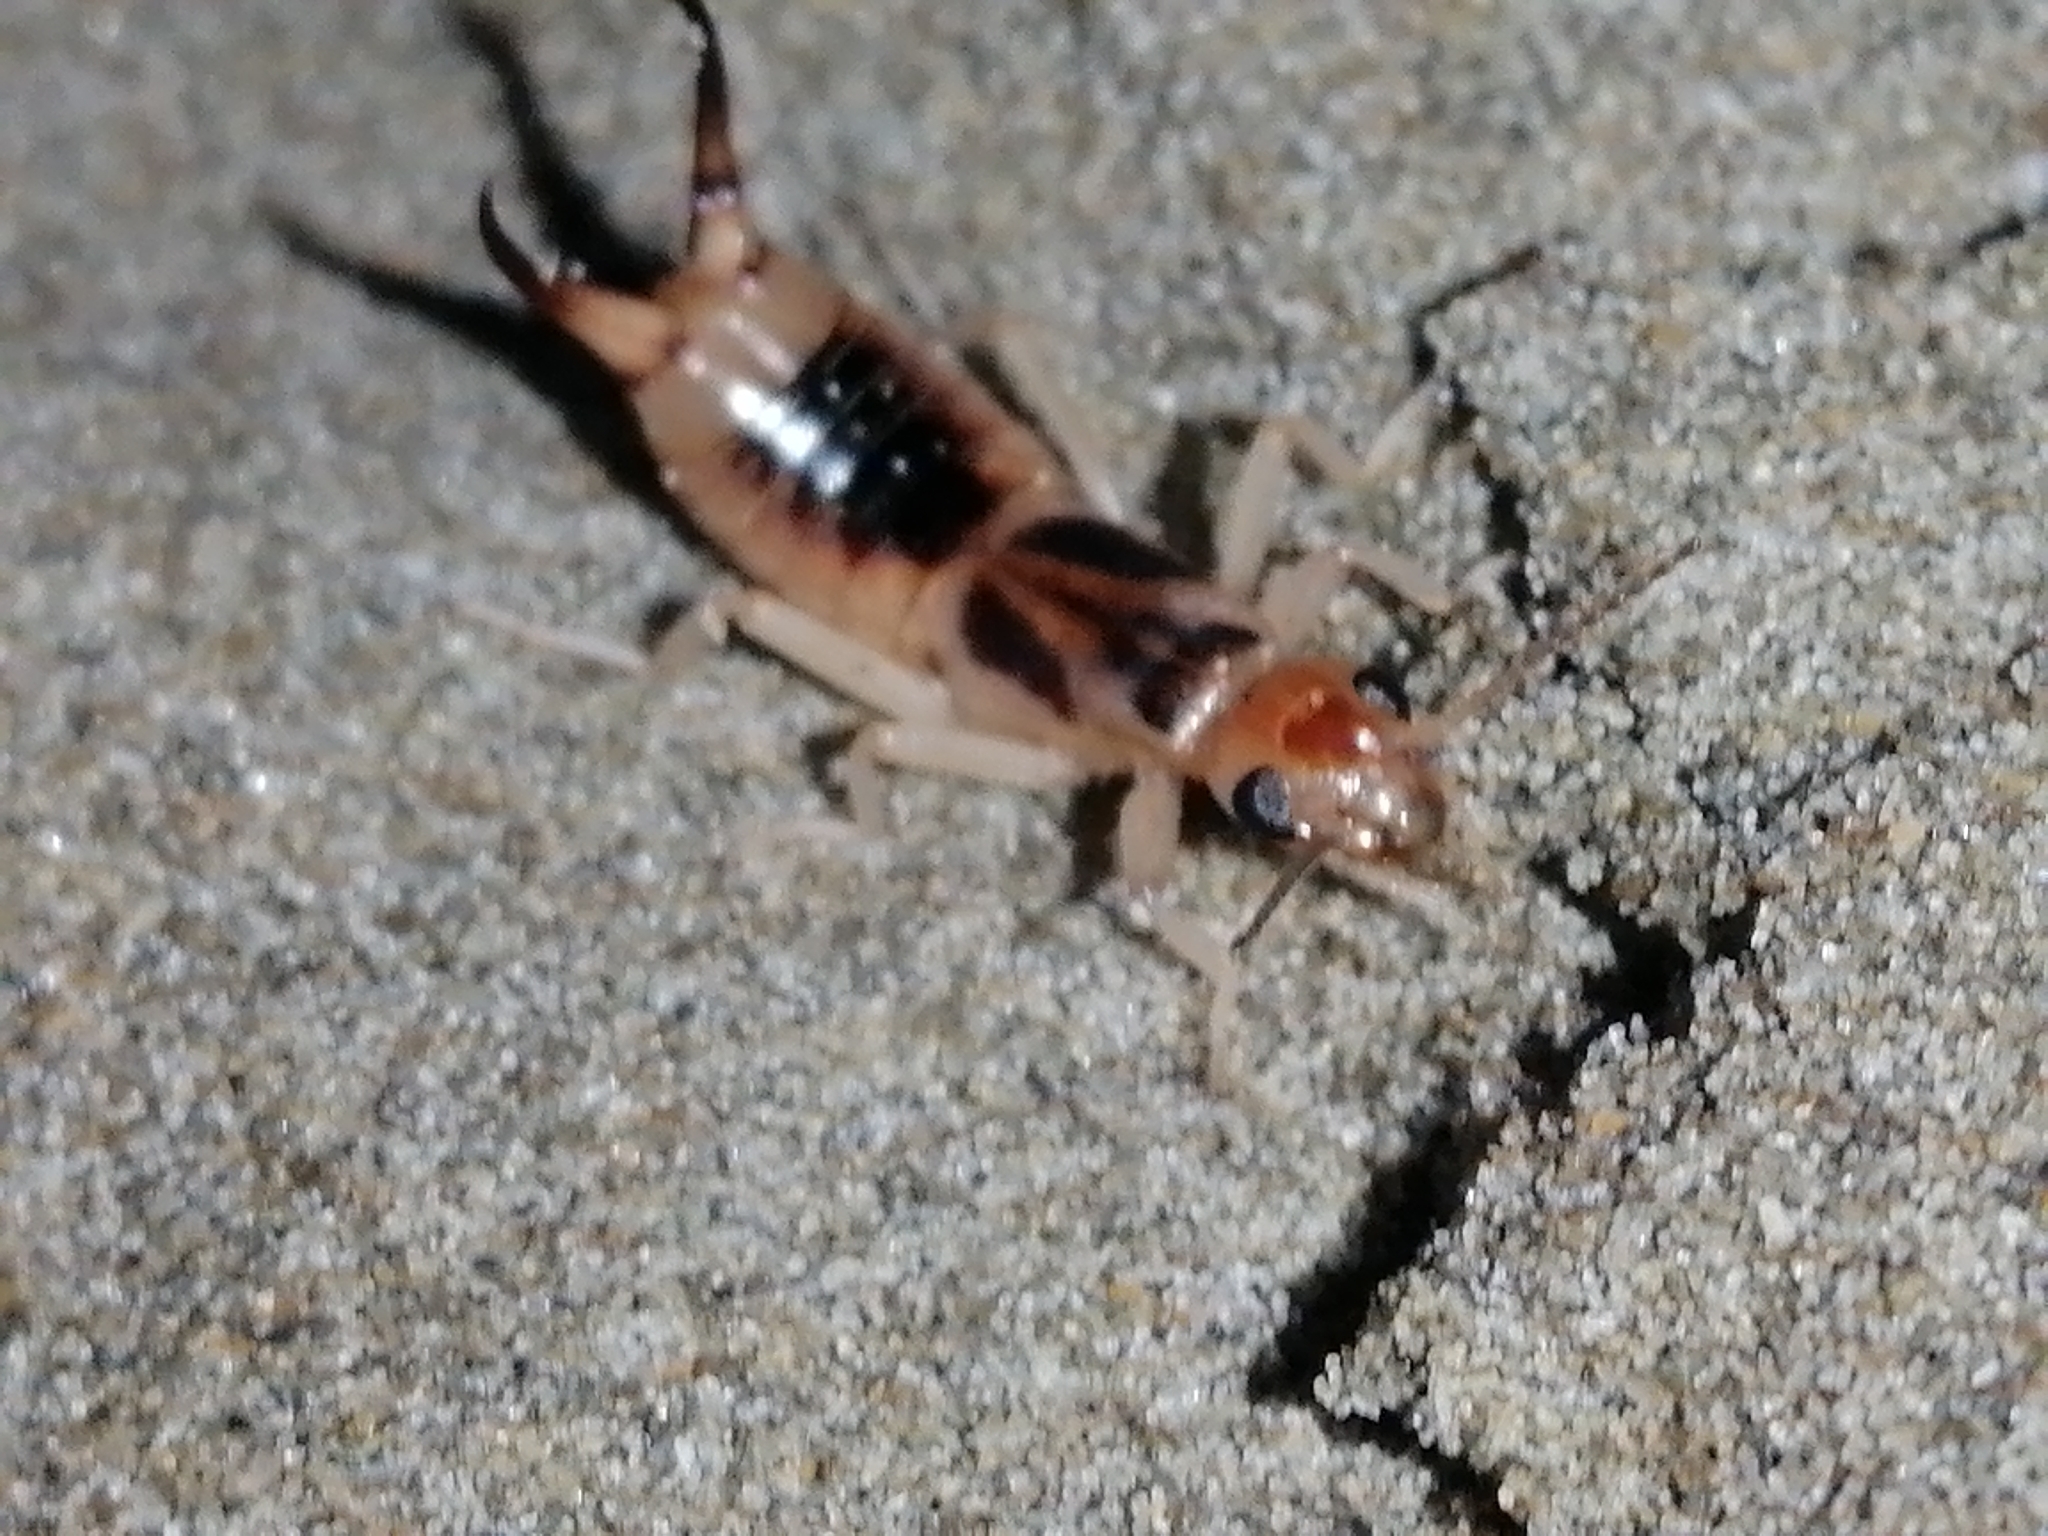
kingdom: Animalia
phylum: Arthropoda
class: Insecta
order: Dermaptera
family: Labiduridae
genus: Labidura
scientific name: Labidura riparia
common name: Striped earwig
